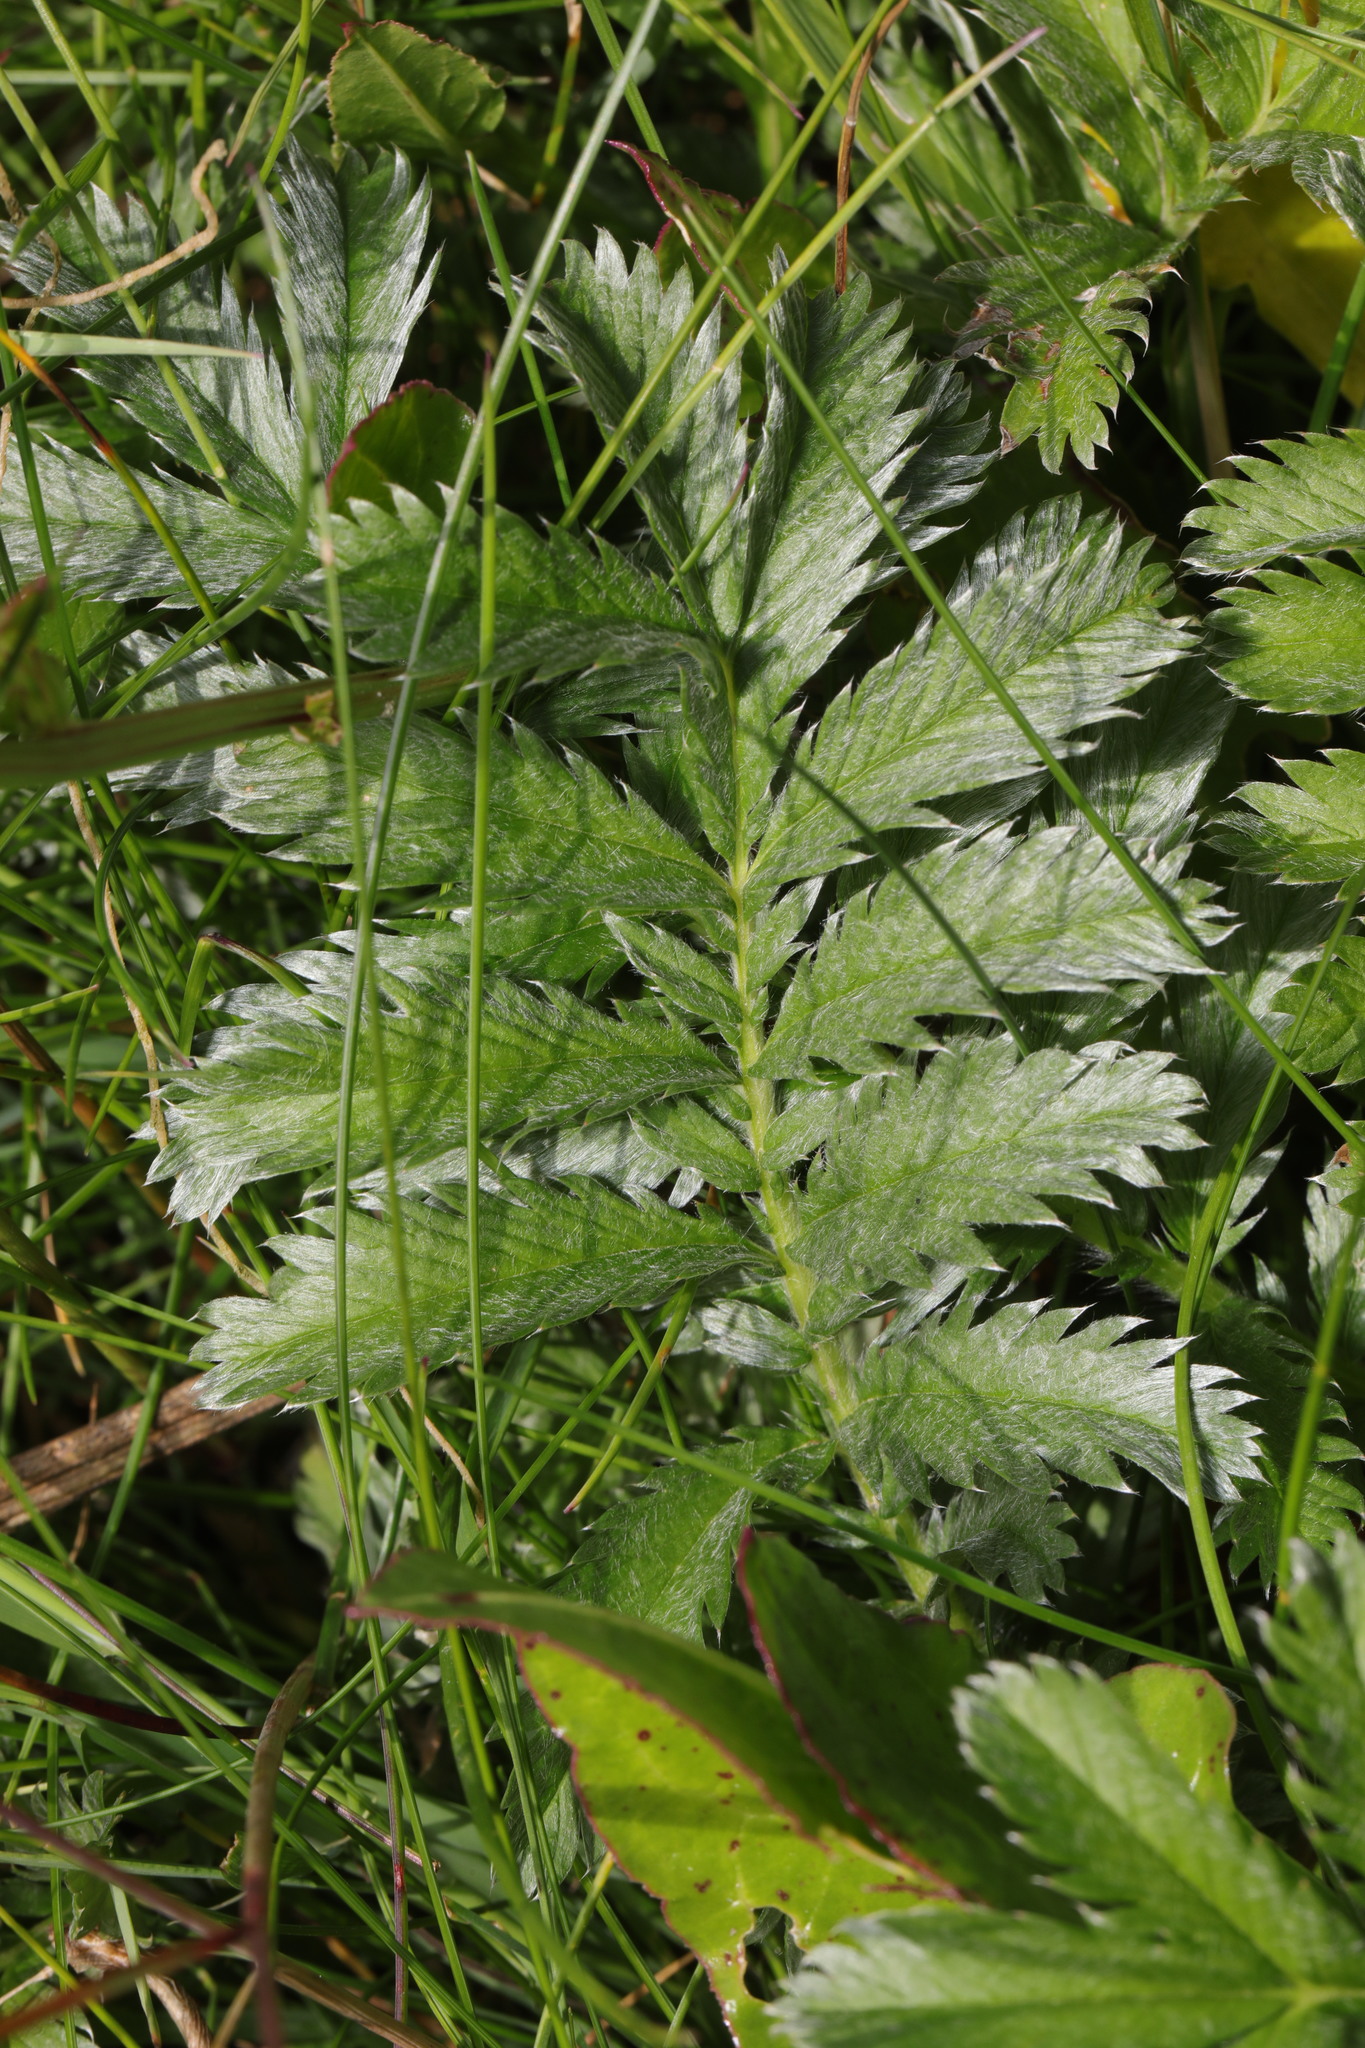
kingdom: Plantae
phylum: Tracheophyta
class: Magnoliopsida
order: Rosales
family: Rosaceae
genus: Argentina
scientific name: Argentina anserina
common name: Common silverweed
